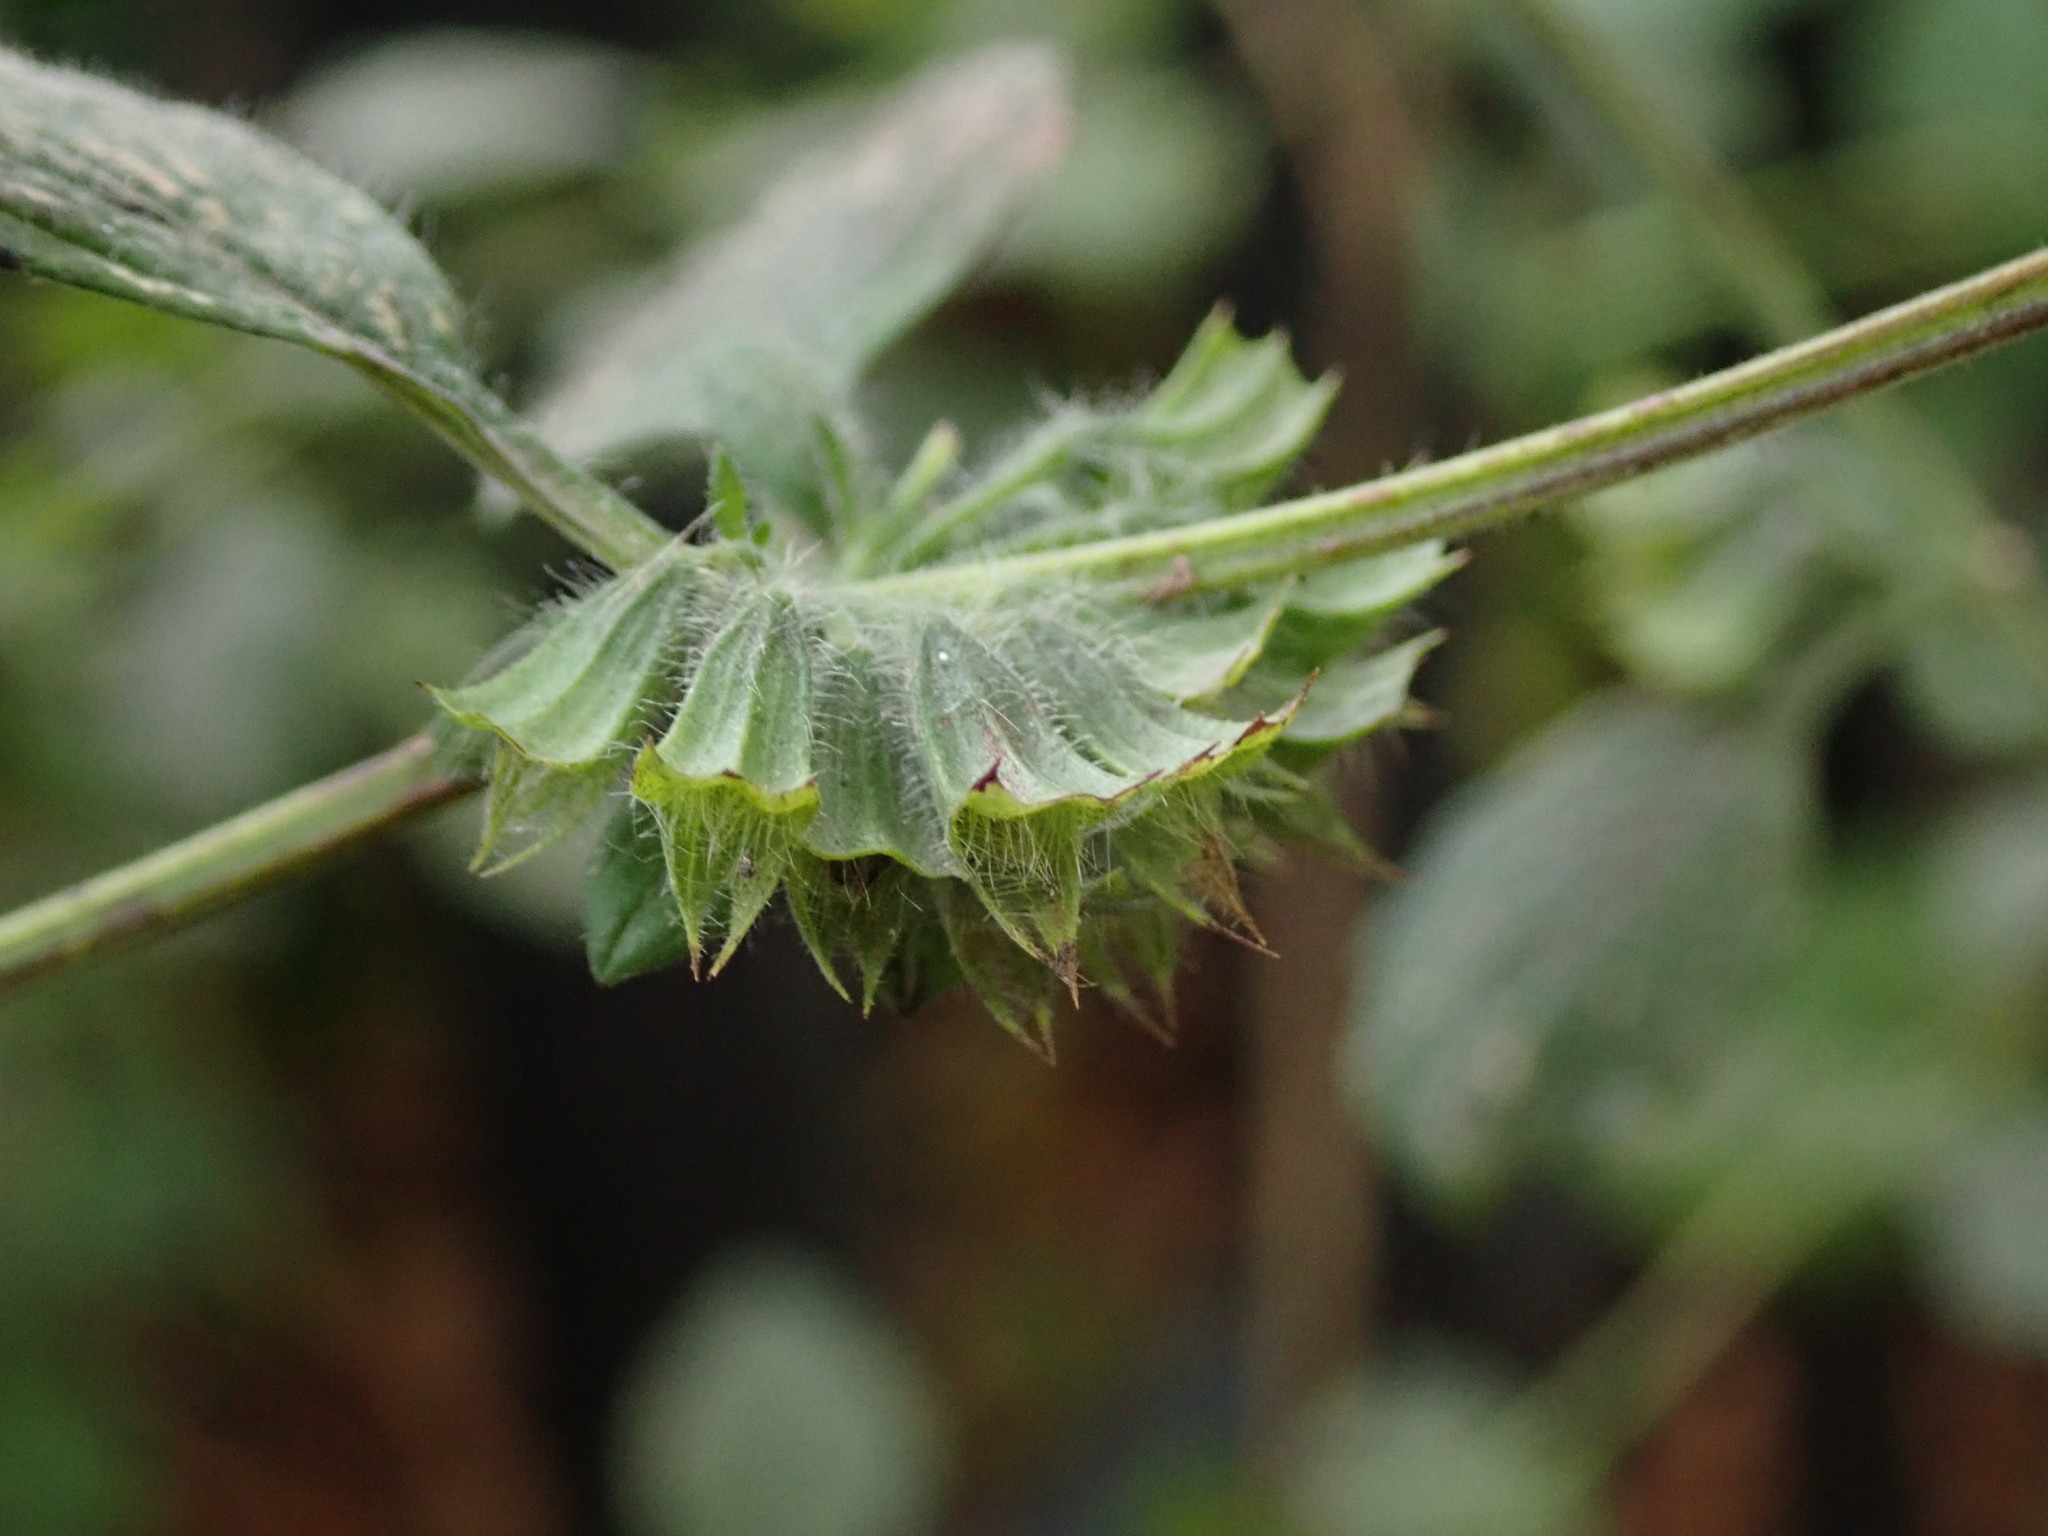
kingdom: Plantae
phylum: Tracheophyta
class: Magnoliopsida
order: Lamiales
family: Lamiaceae
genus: Melissa
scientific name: Melissa officinalis
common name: Balm
